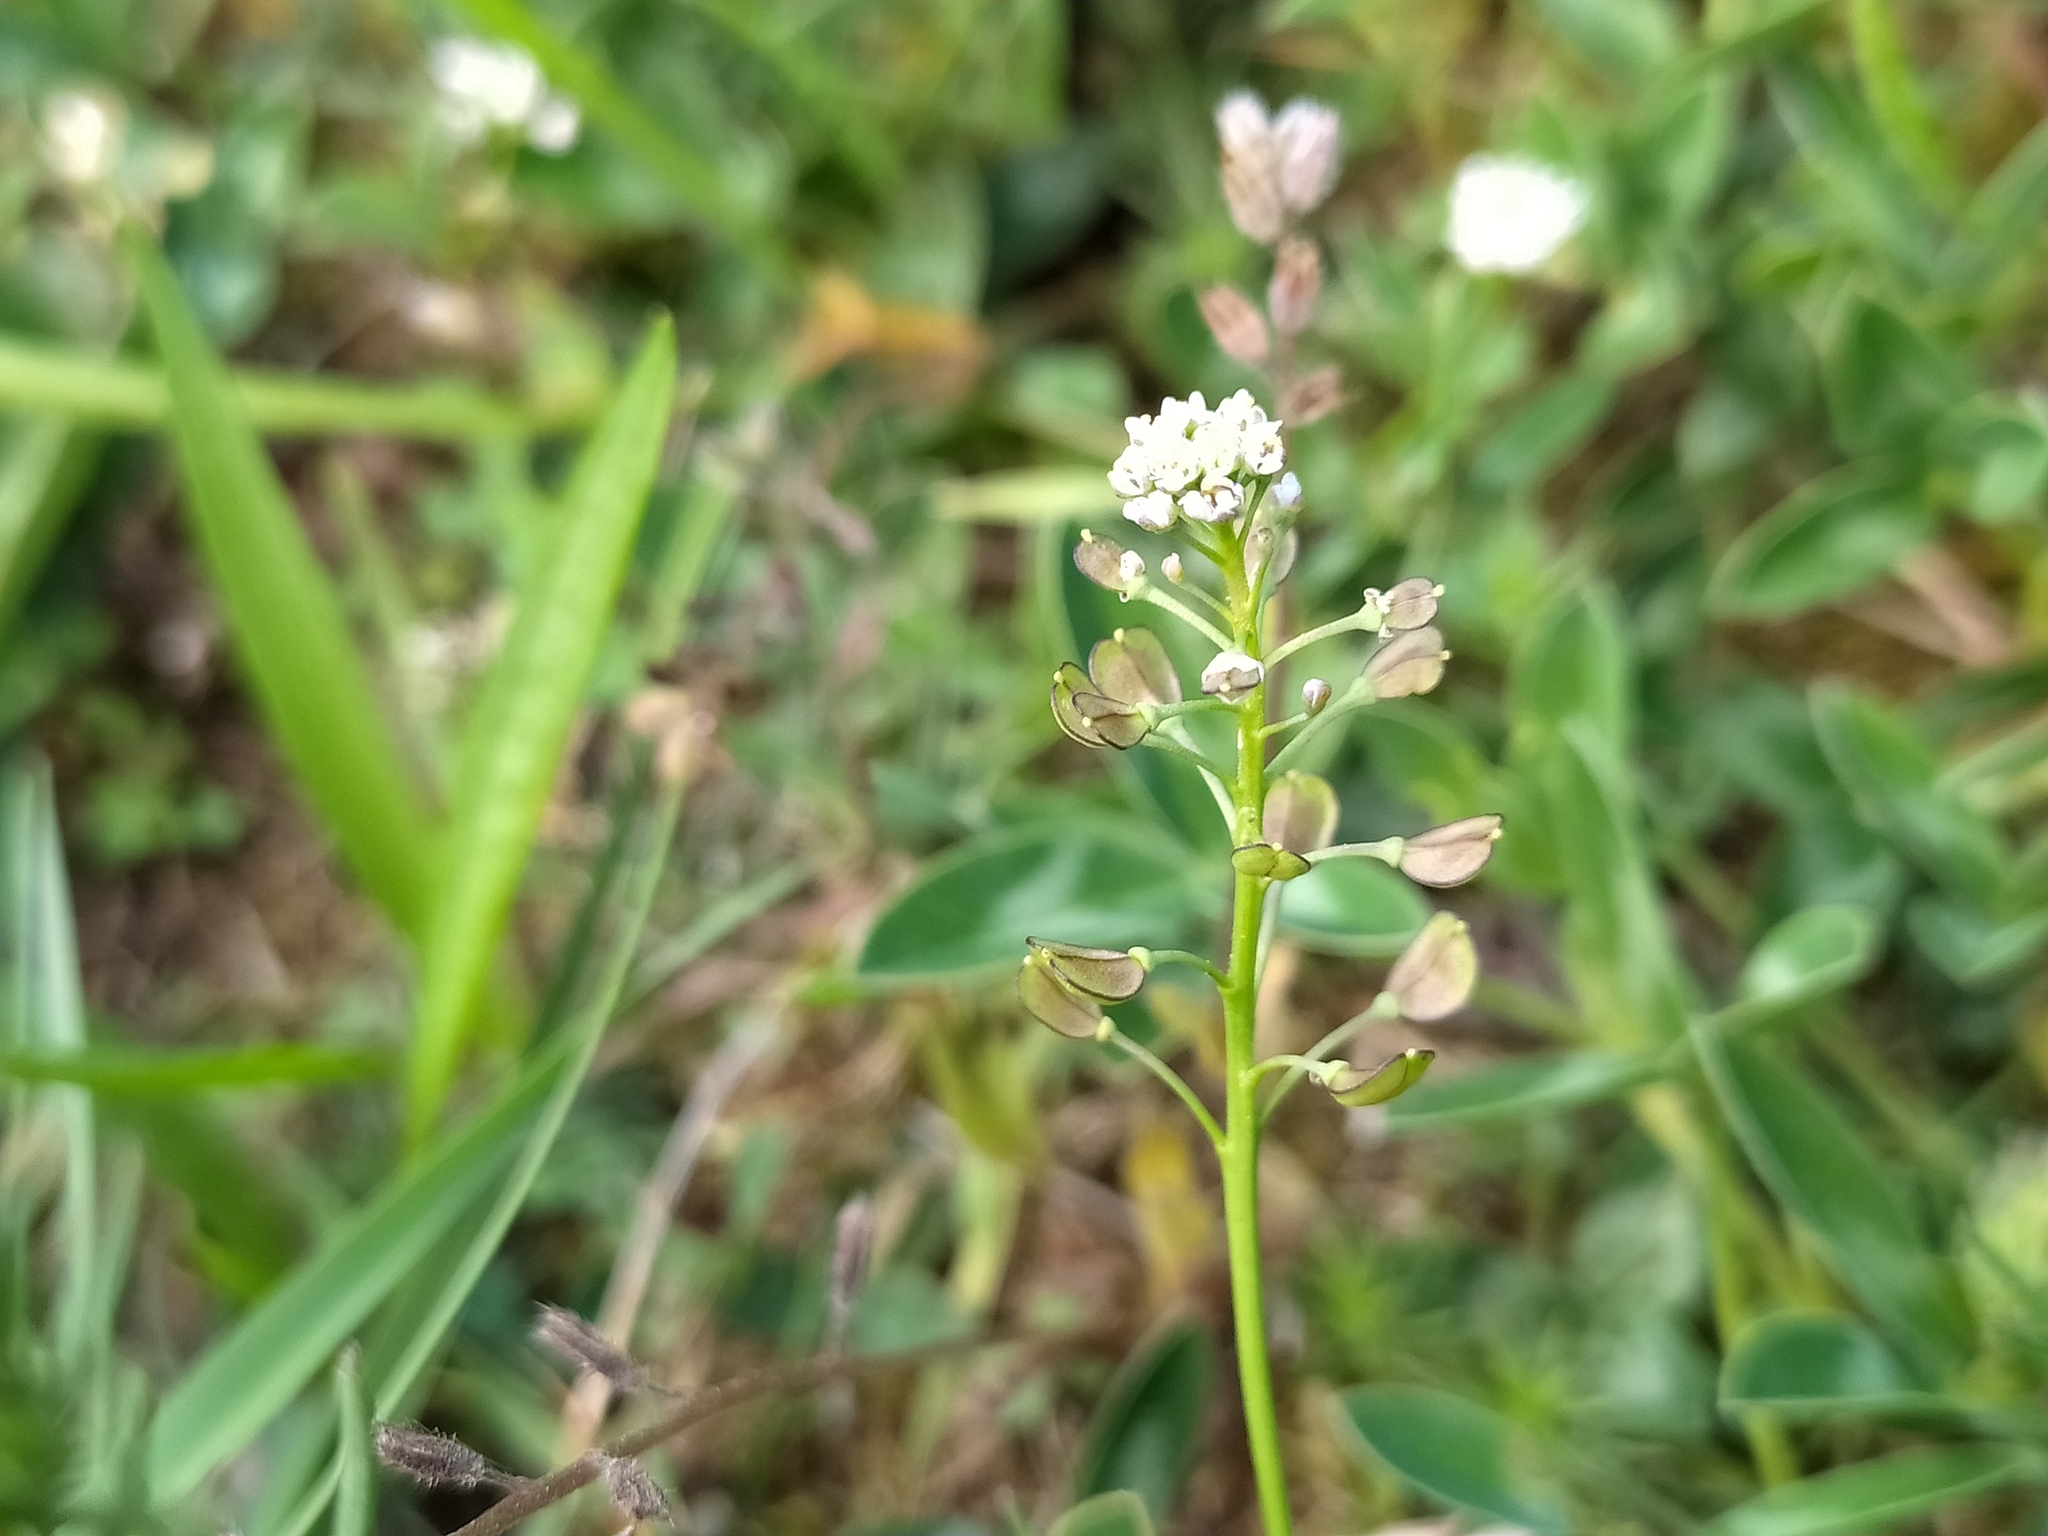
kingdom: Plantae
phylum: Tracheophyta
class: Magnoliopsida
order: Brassicales
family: Brassicaceae
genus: Teesdalia
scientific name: Teesdalia nudicaulis
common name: Shepherd's cress
